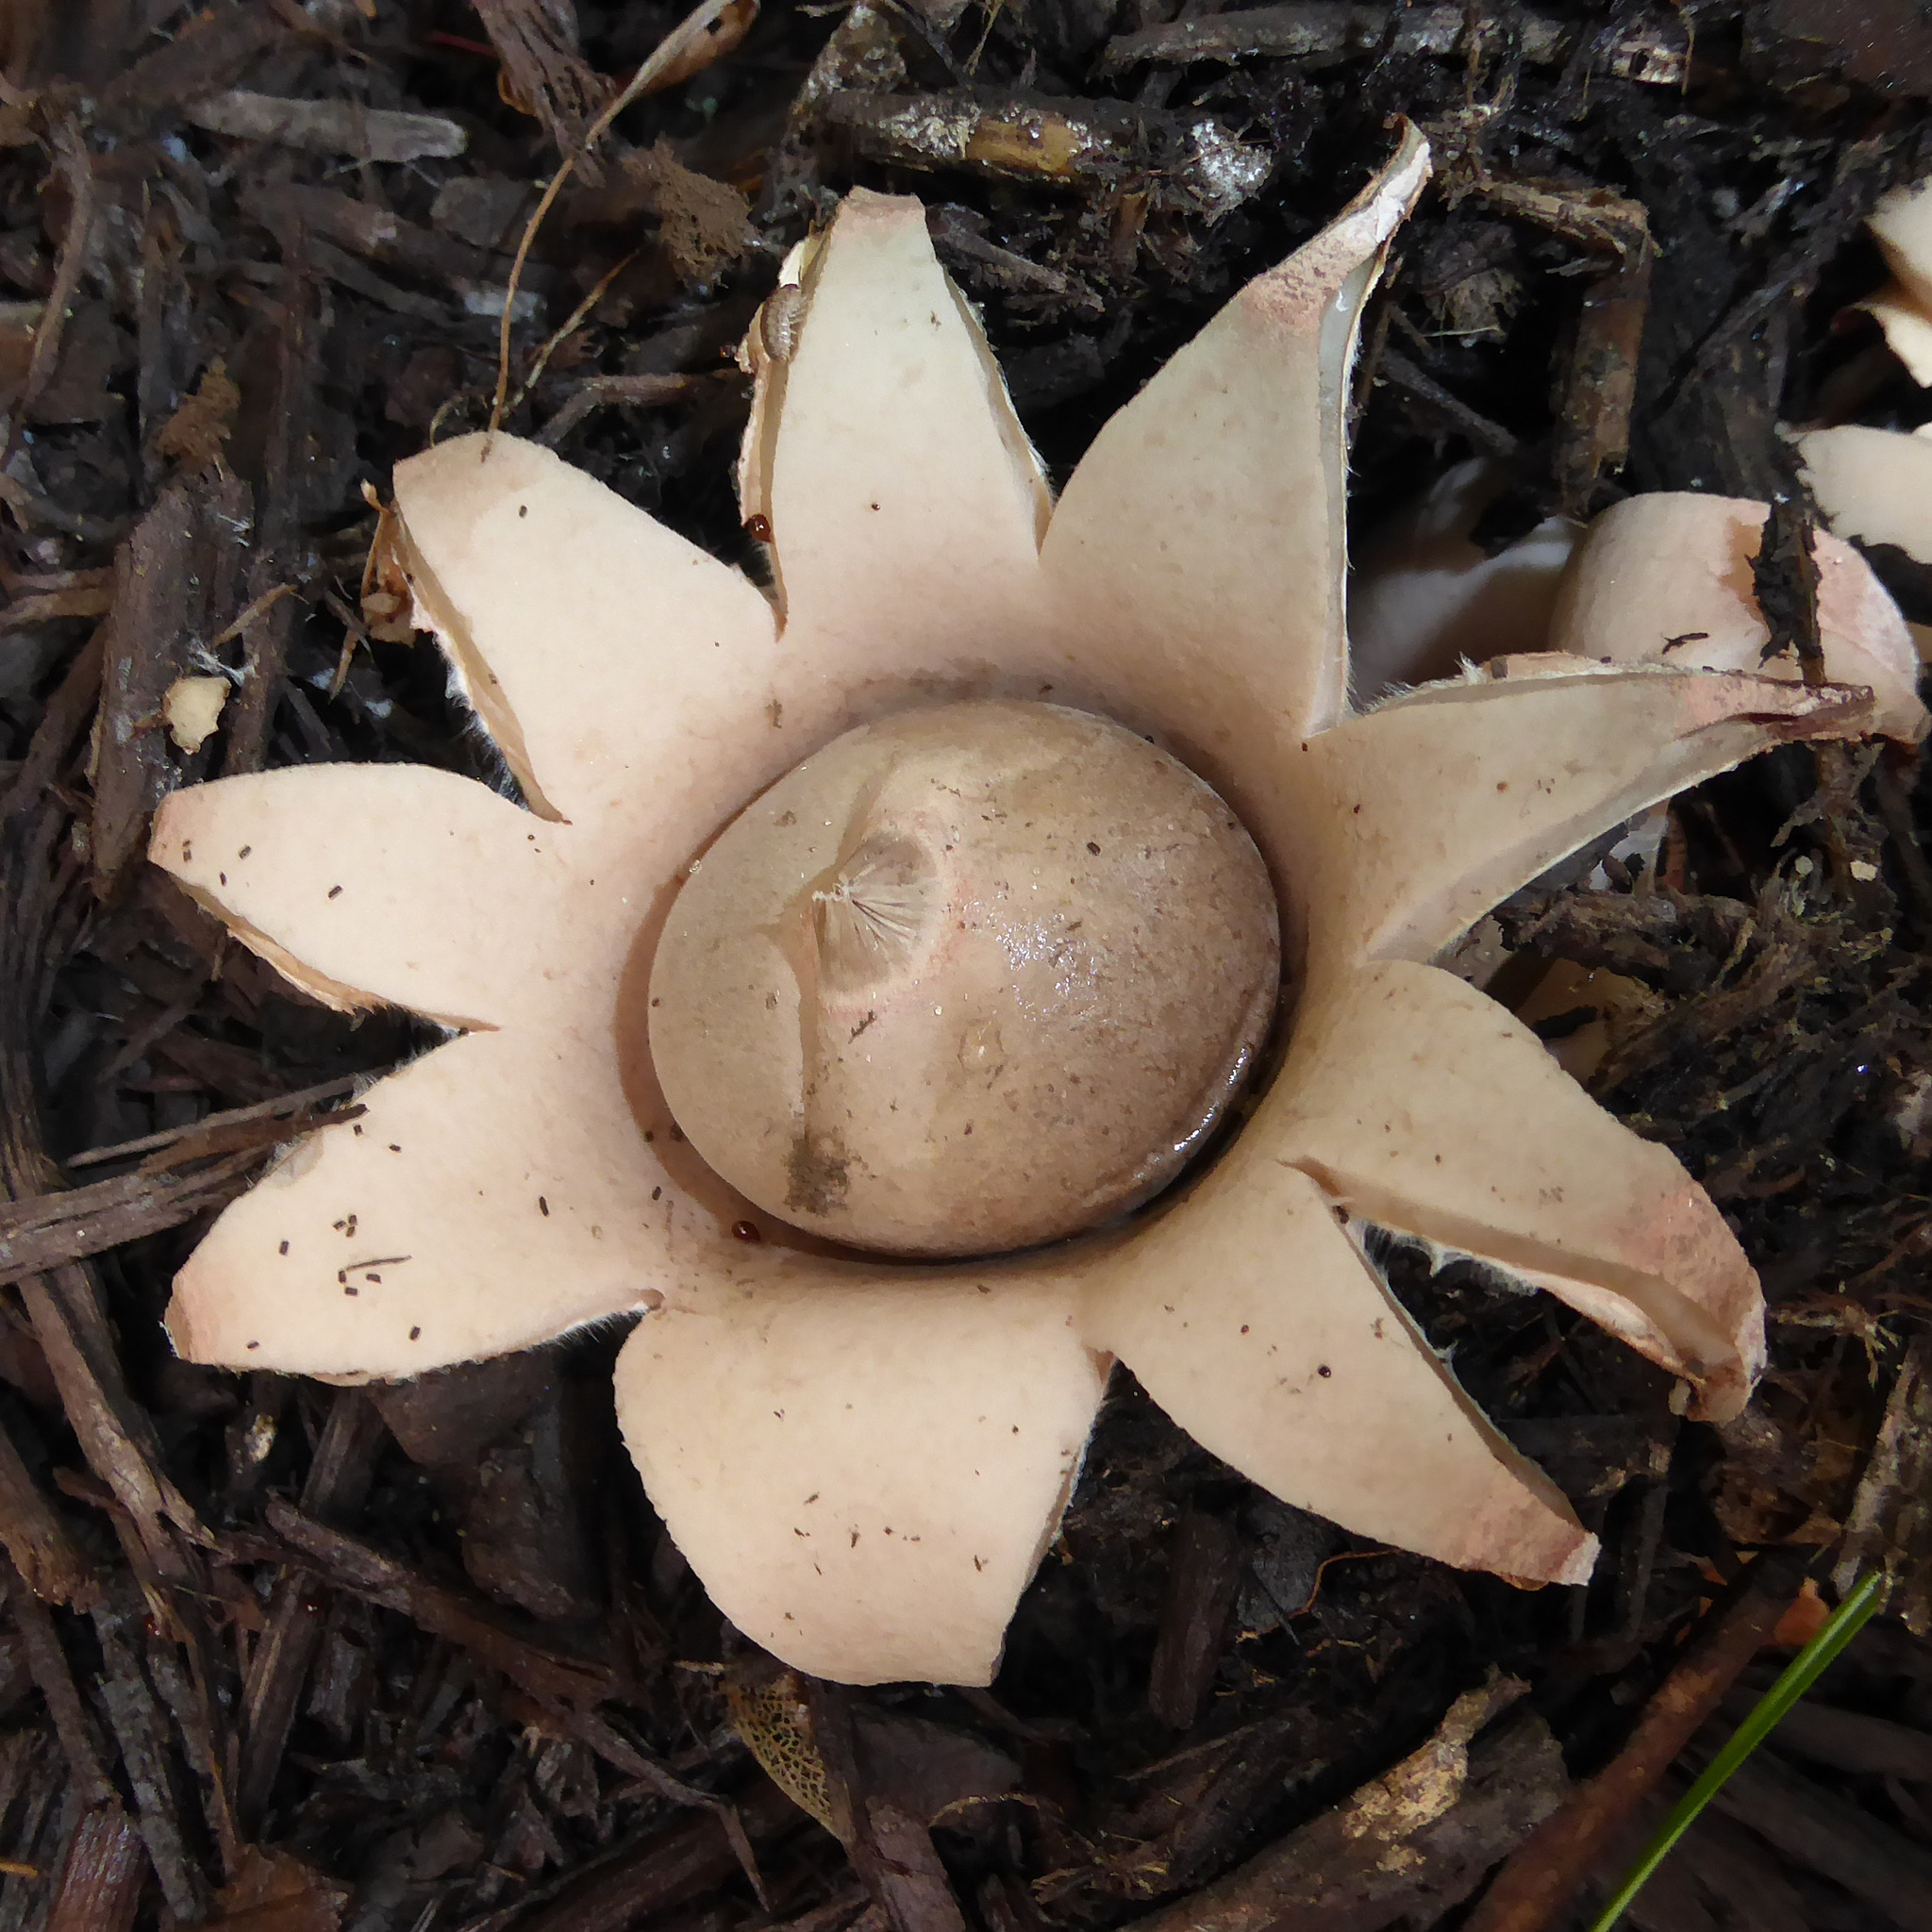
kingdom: Fungi
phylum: Basidiomycota
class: Agaricomycetes
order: Geastrales
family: Geastraceae
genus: Geastrum
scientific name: Geastrum saccatum
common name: Rounded earthstar
